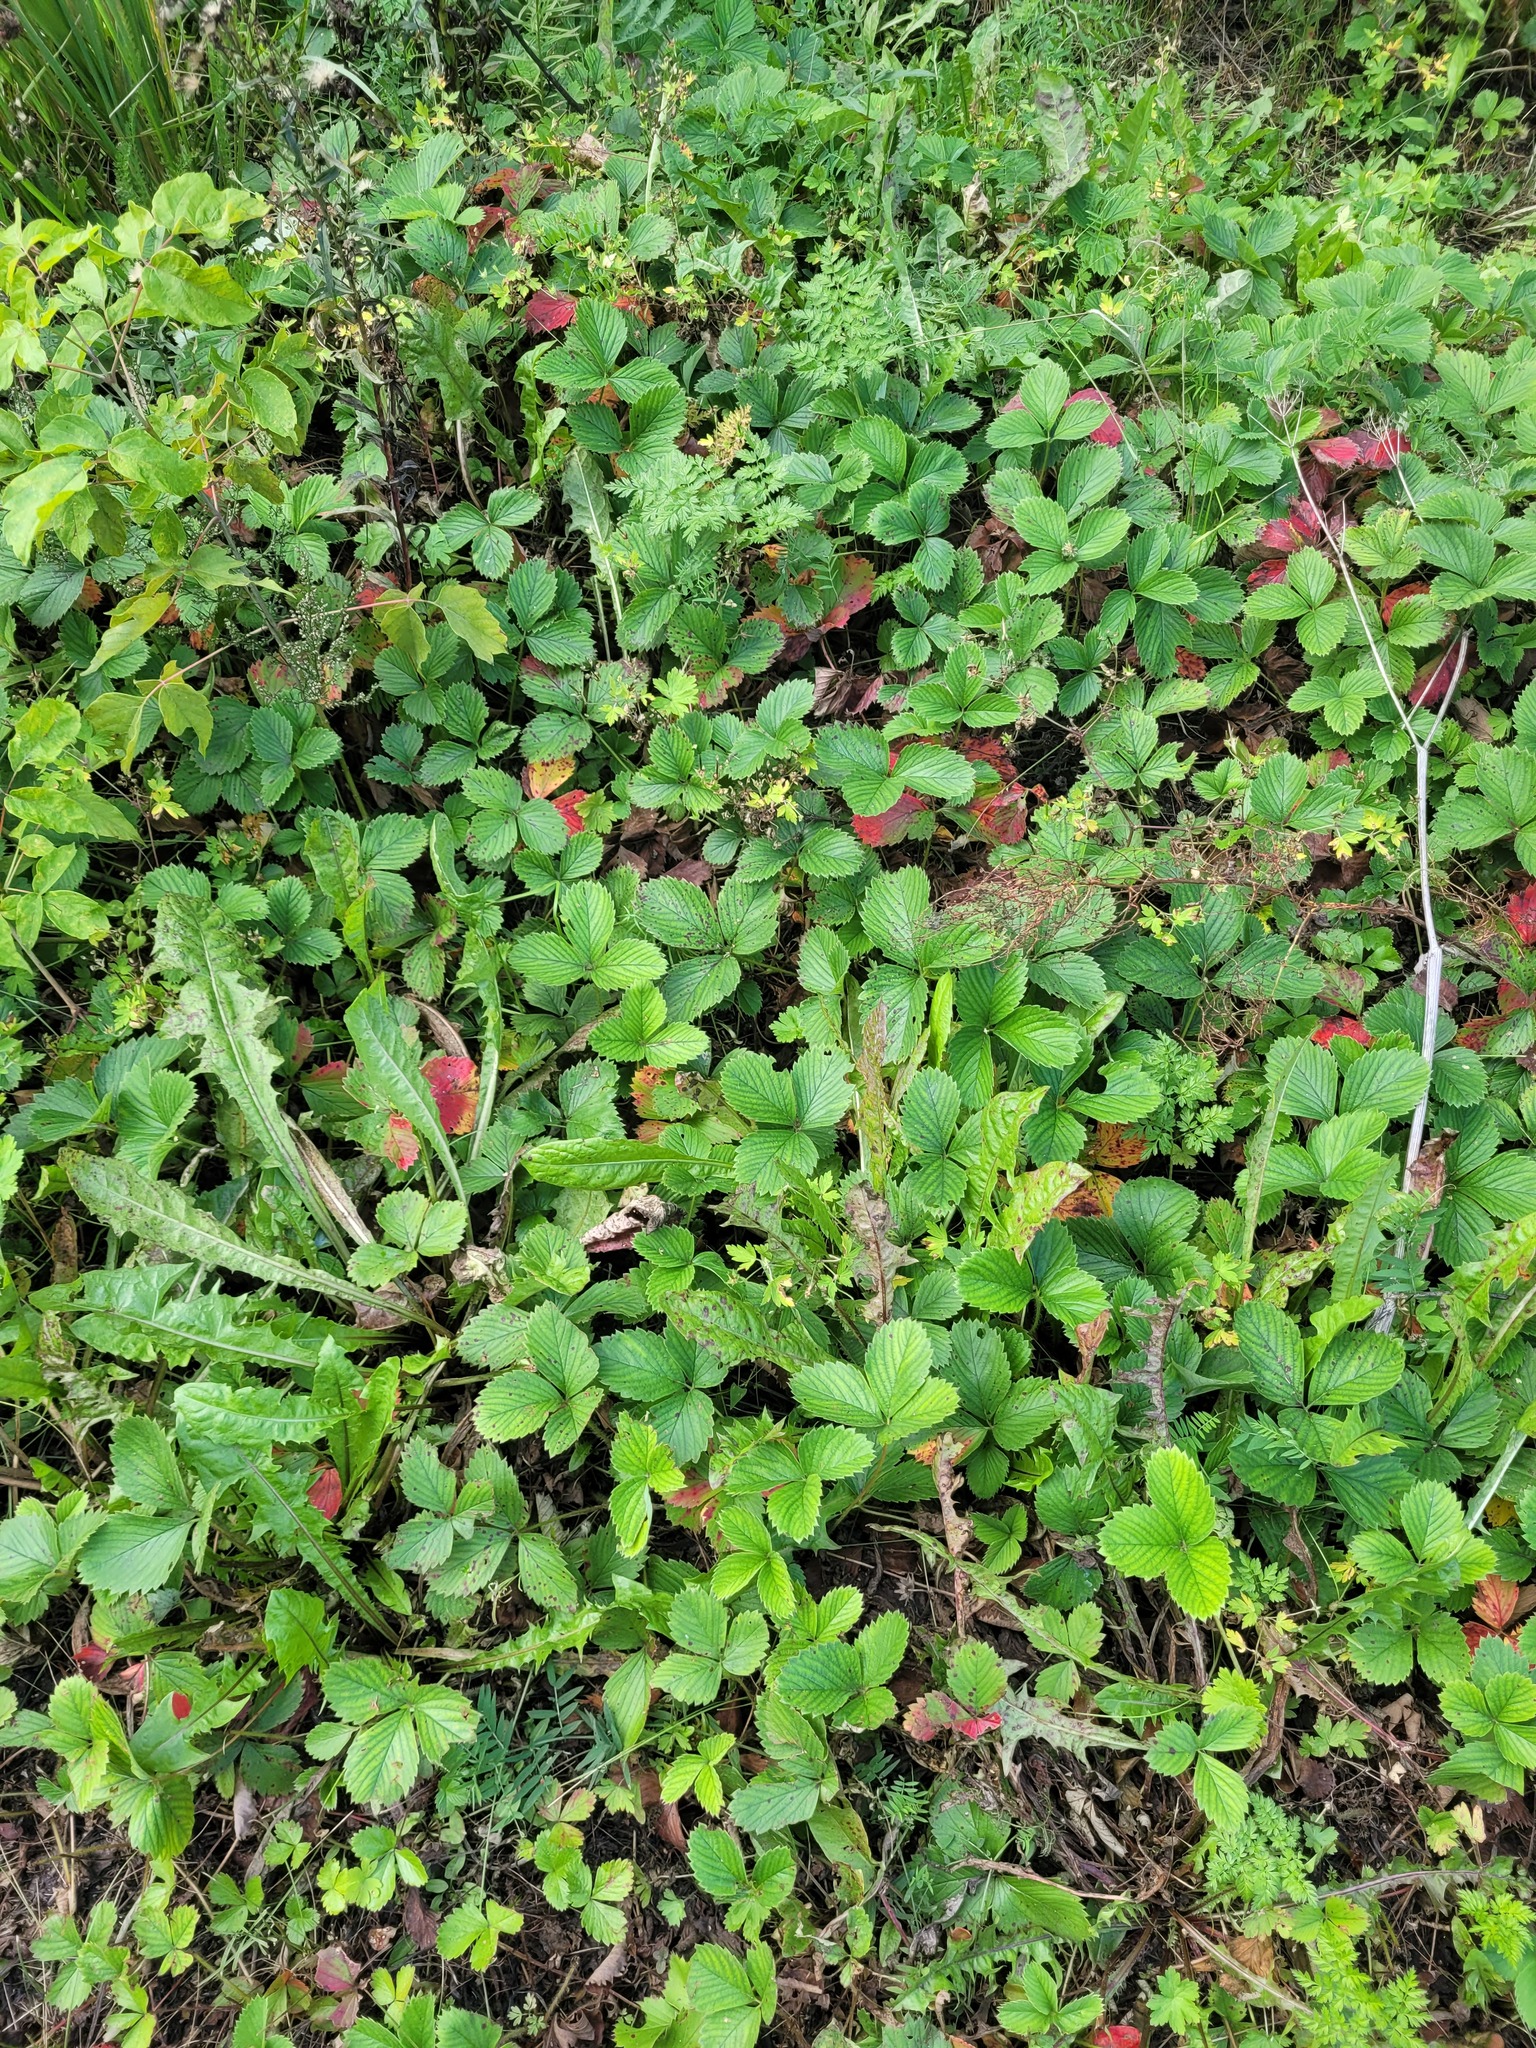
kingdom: Plantae
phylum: Tracheophyta
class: Magnoliopsida
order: Rosales
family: Rosaceae
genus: Fragaria
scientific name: Fragaria ananassa
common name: Garden strawberry
